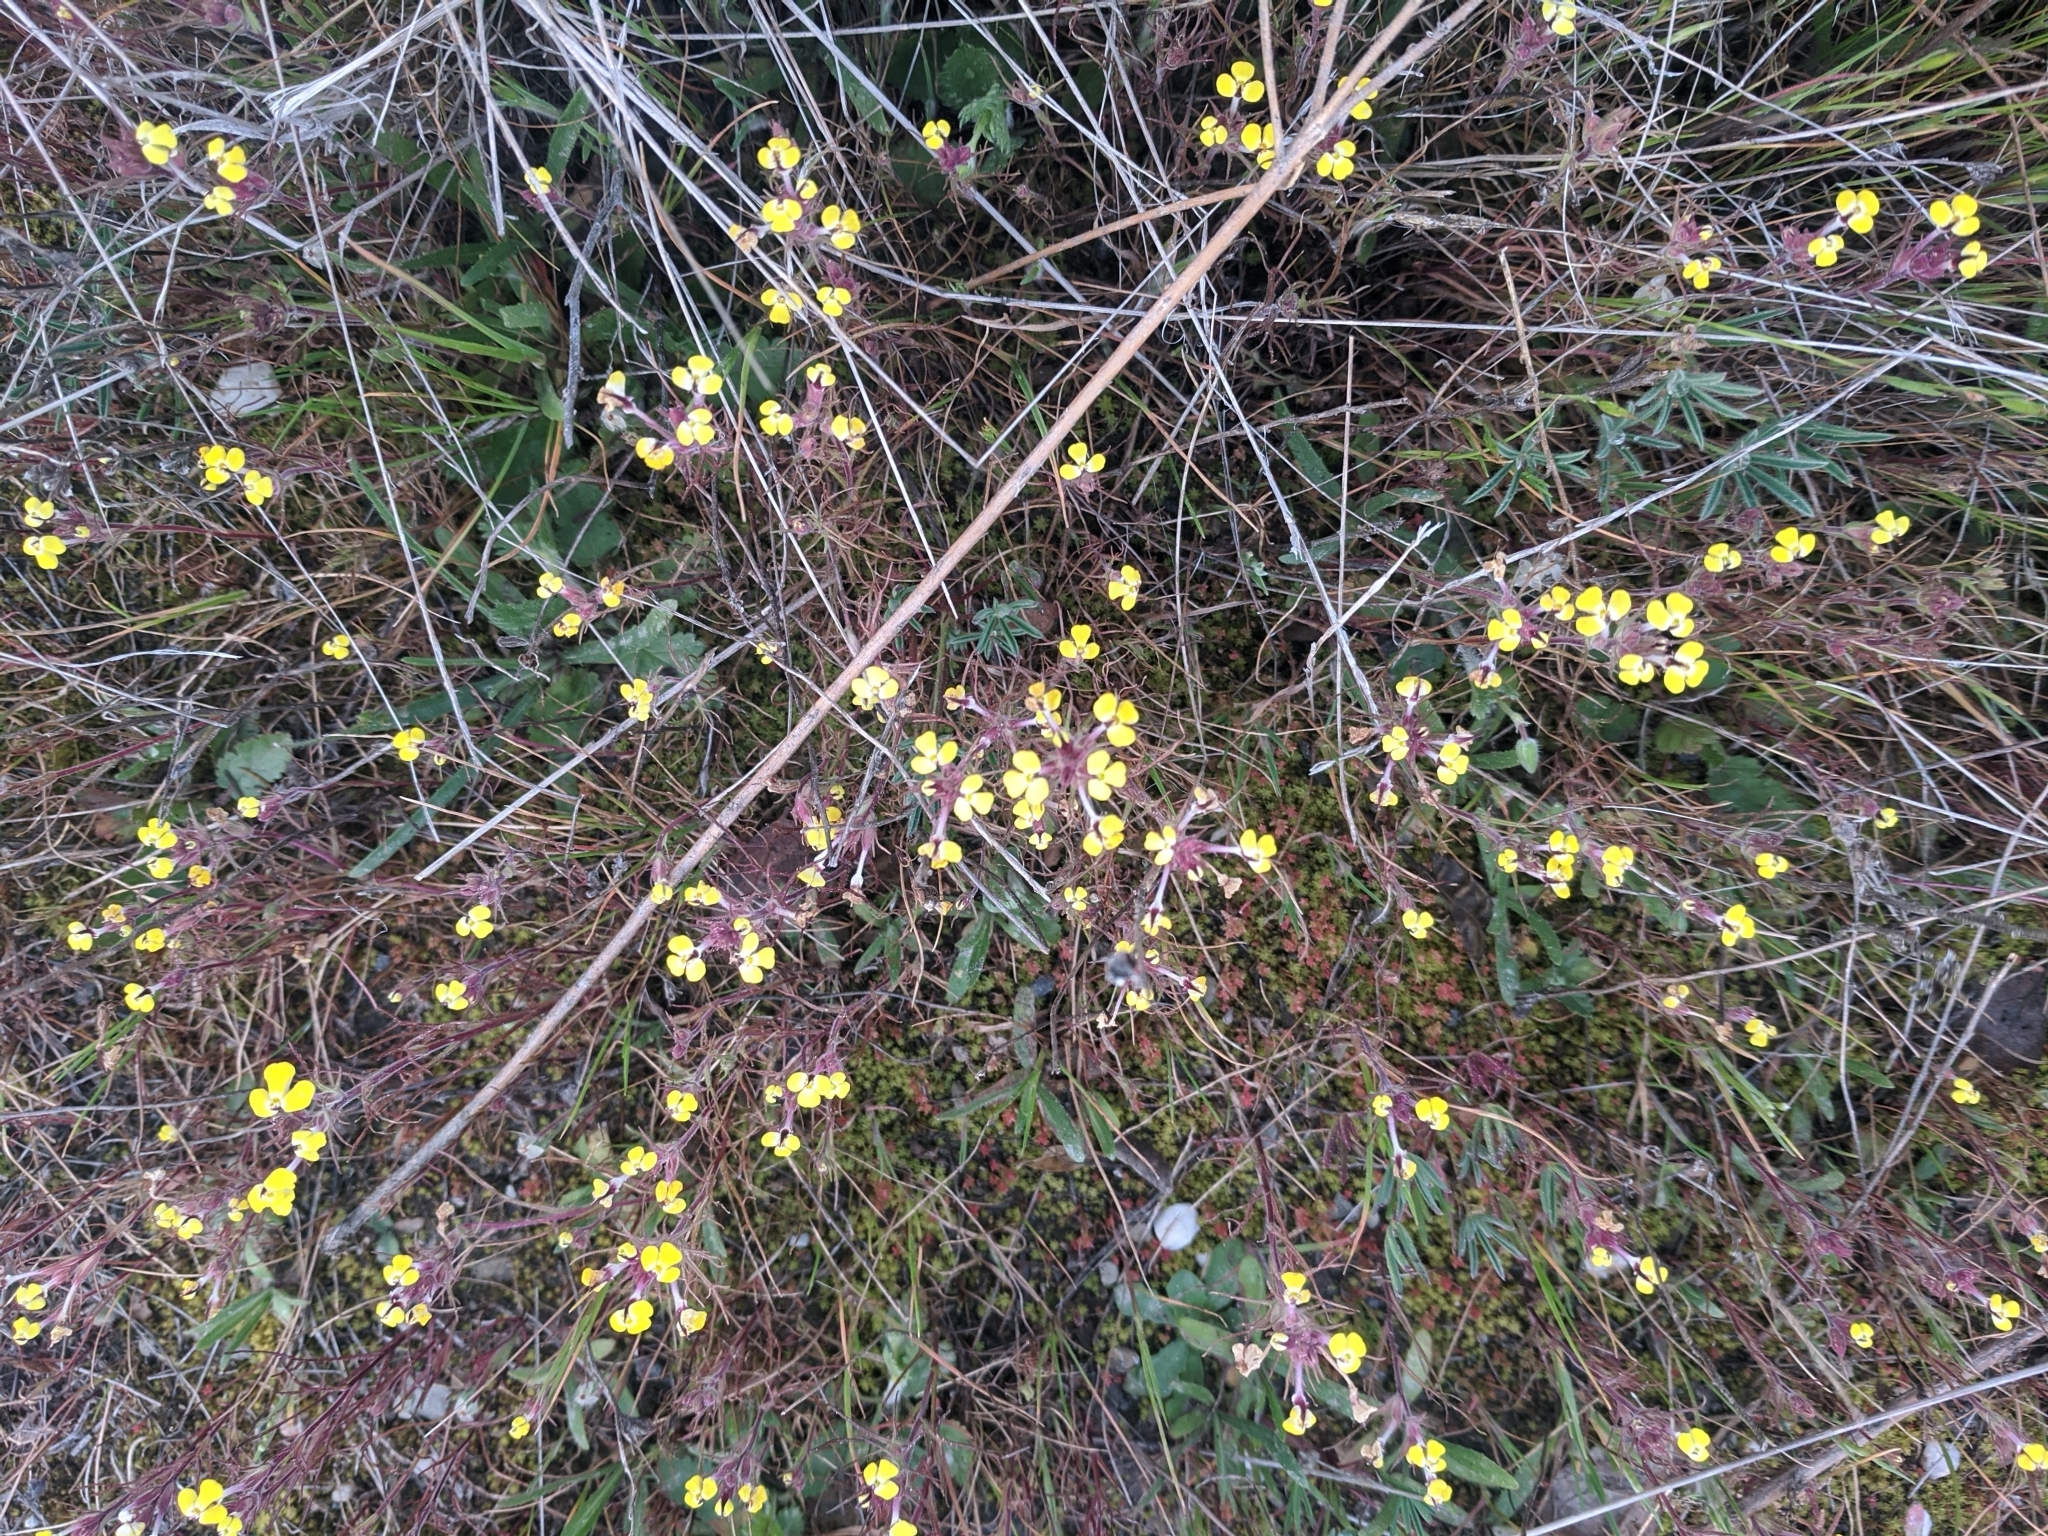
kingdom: Plantae
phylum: Tracheophyta
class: Magnoliopsida
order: Lamiales
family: Orobanchaceae
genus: Triphysaria
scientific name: Triphysaria eriantha
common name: Johnny-tuck
